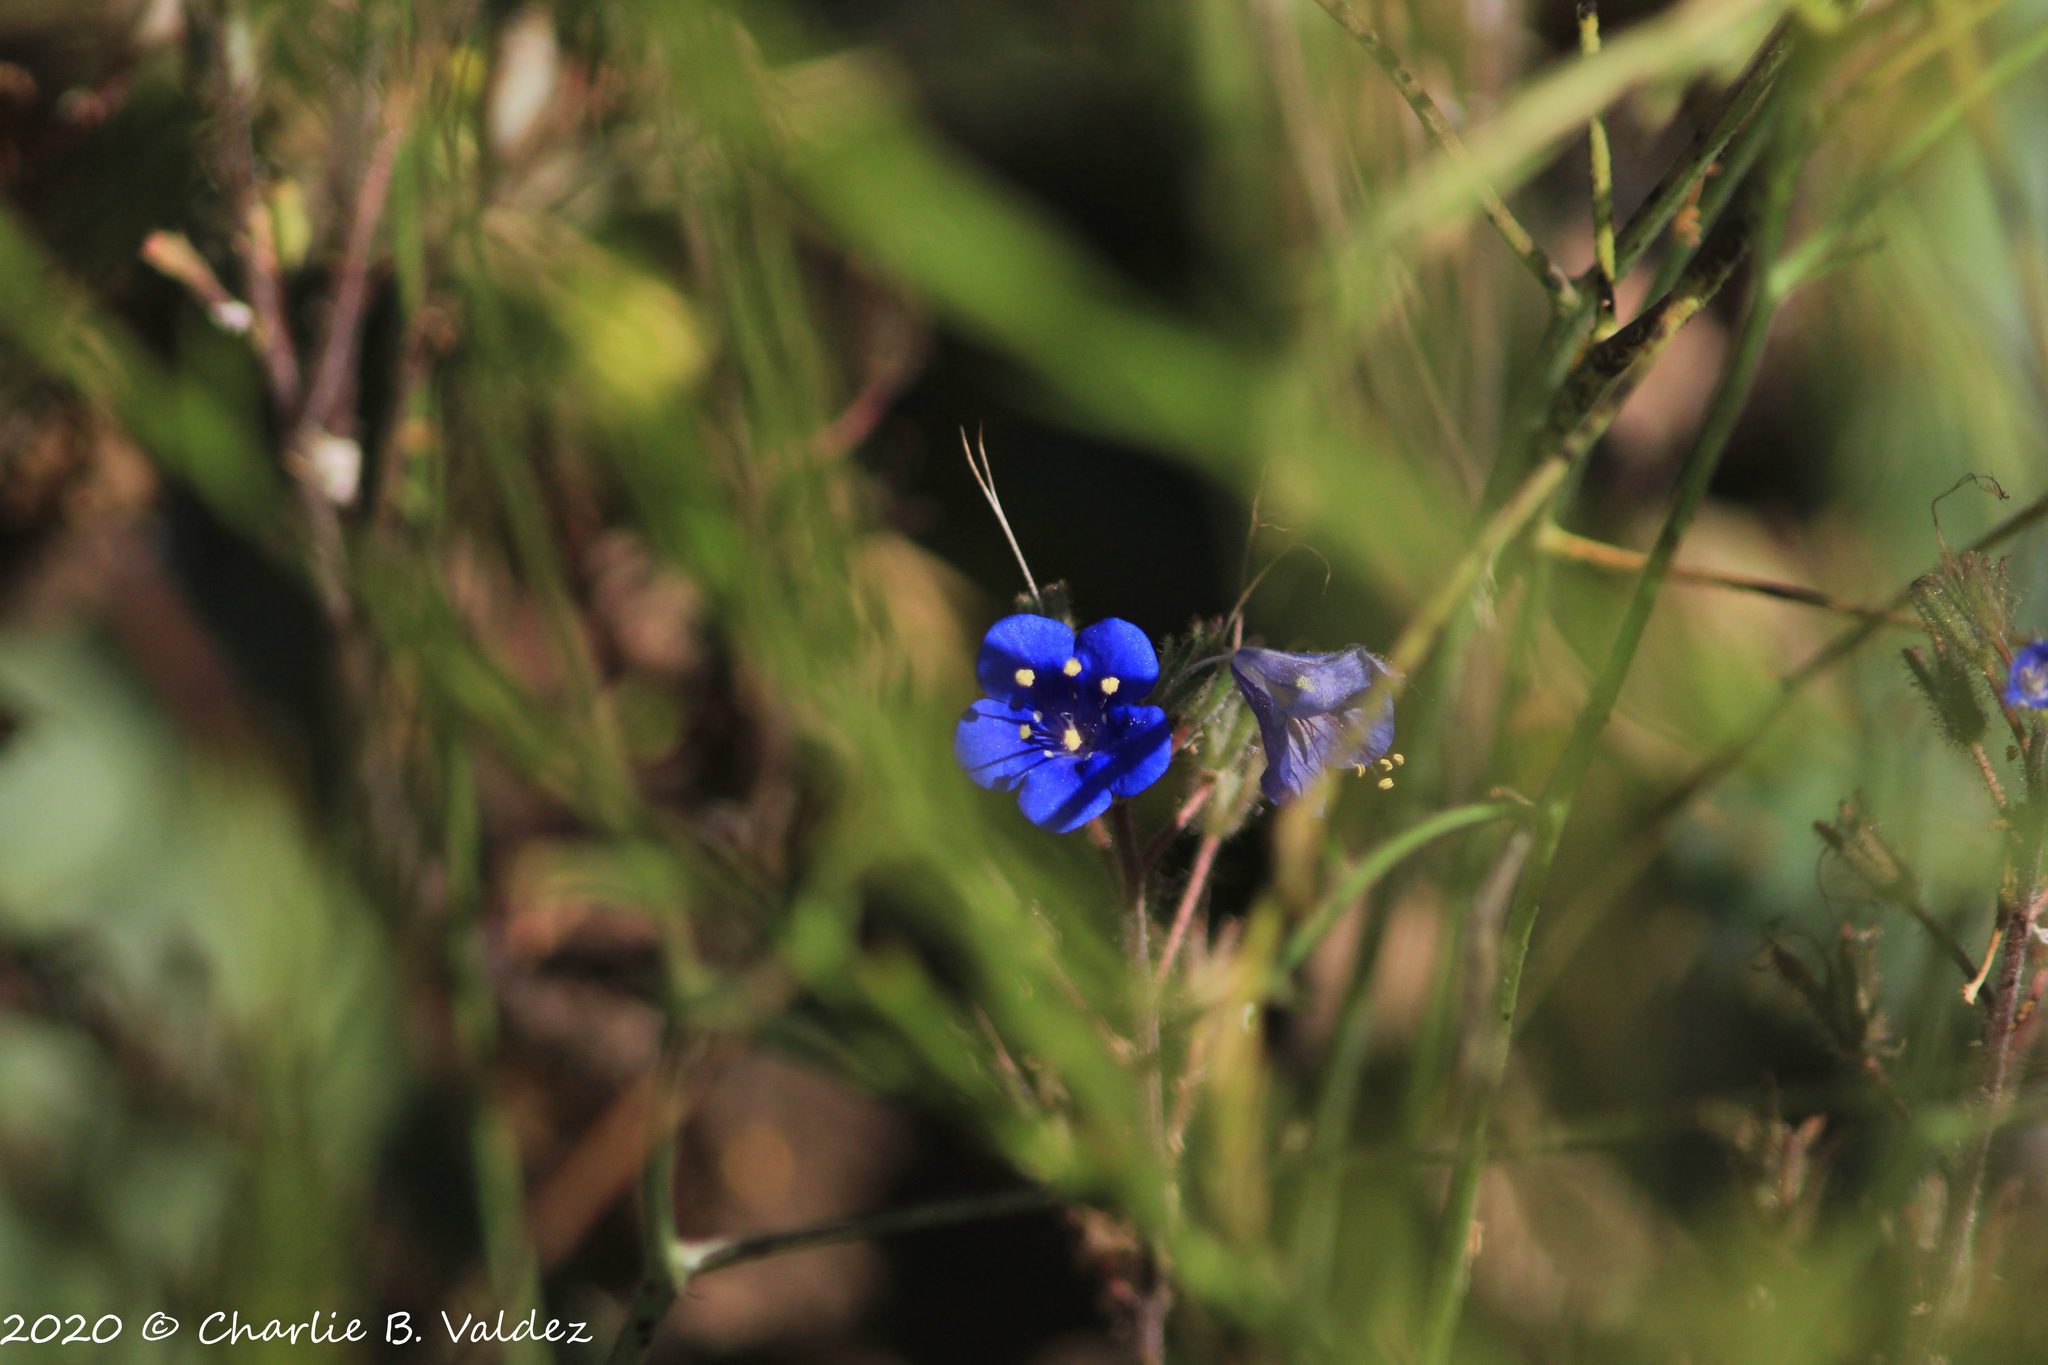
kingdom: Plantae
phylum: Tracheophyta
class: Magnoliopsida
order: Boraginales
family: Hydrophyllaceae
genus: Phacelia
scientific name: Phacelia campanularia
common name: California bluebell
